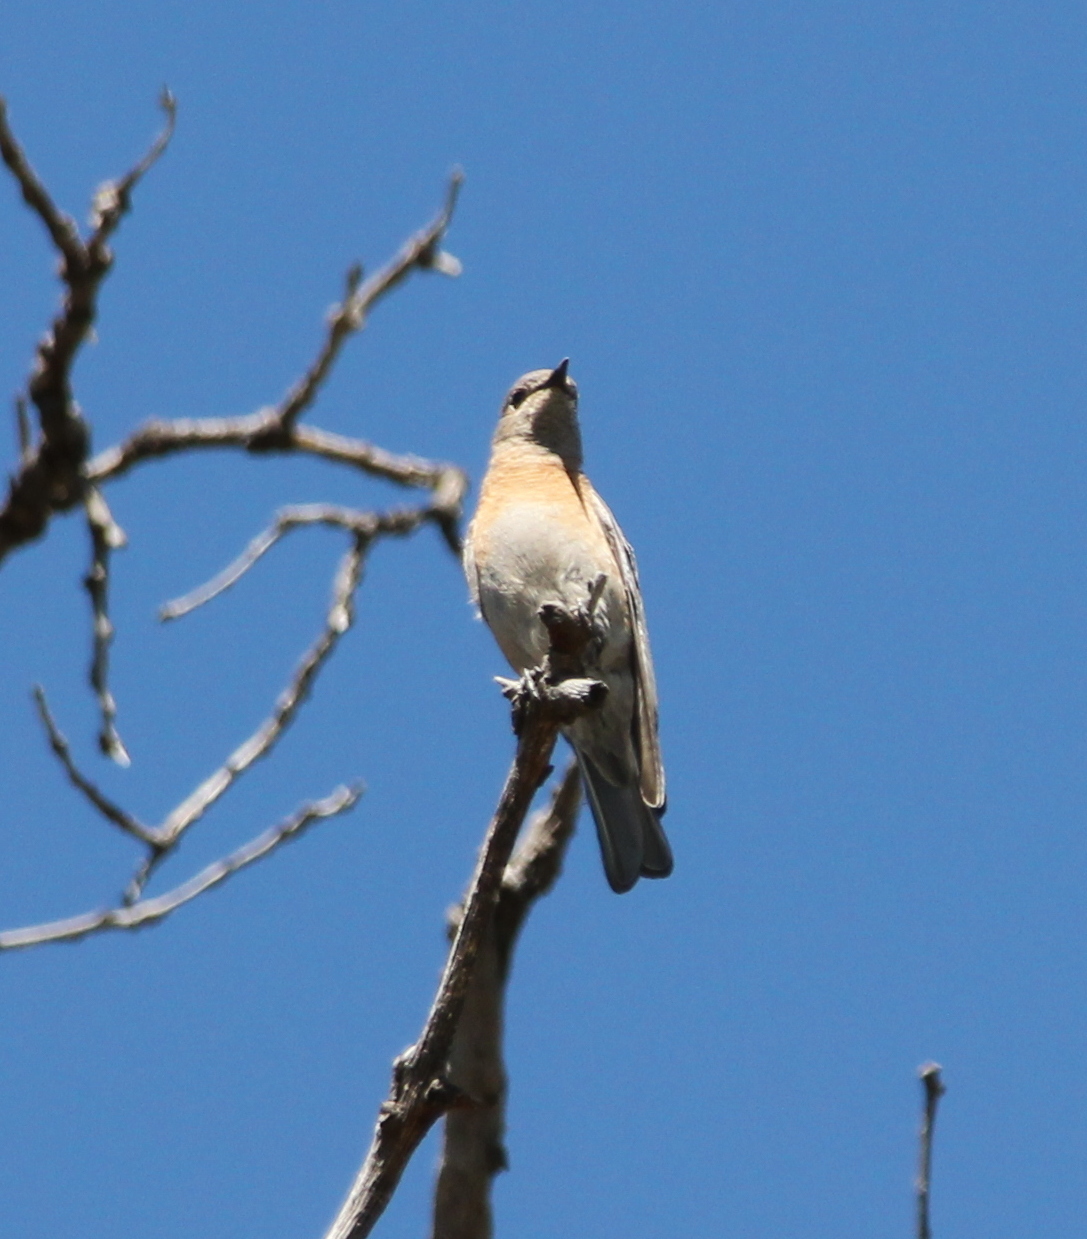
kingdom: Animalia
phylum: Chordata
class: Aves
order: Passeriformes
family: Turdidae
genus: Sialia
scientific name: Sialia mexicana
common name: Western bluebird
